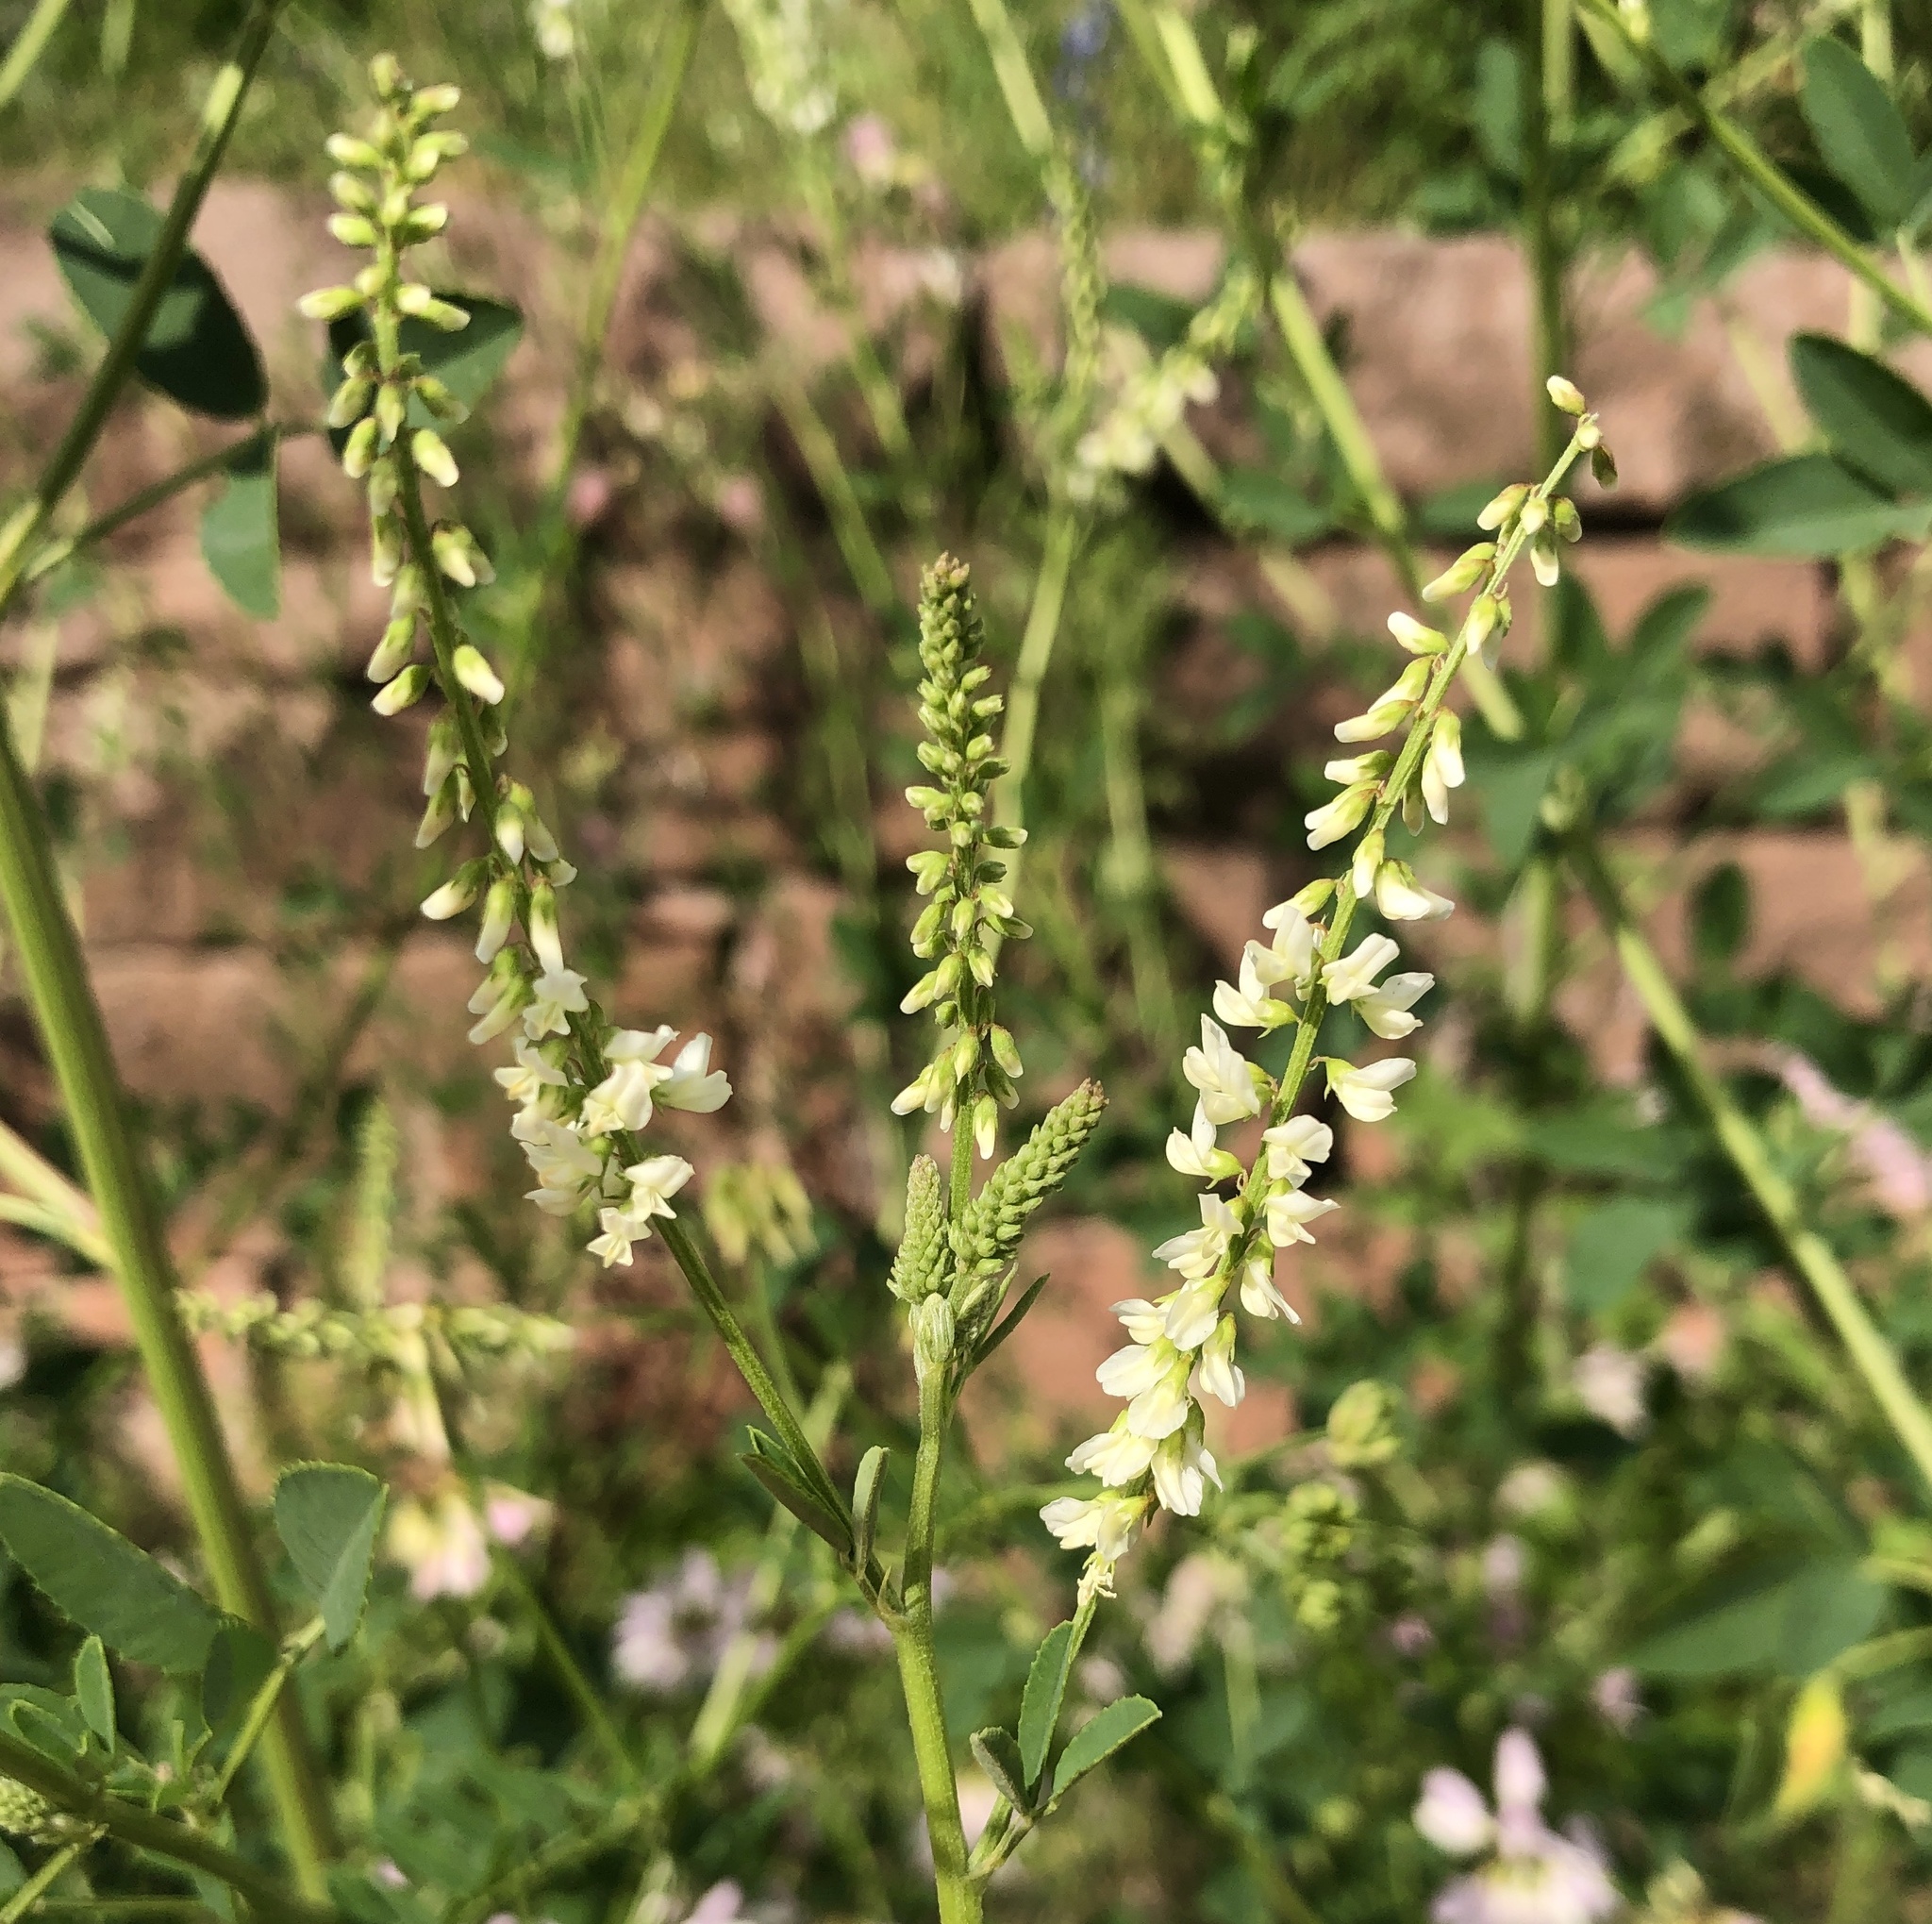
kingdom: Plantae
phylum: Tracheophyta
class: Magnoliopsida
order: Fabales
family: Fabaceae
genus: Melilotus
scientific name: Melilotus albus
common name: White melilot
